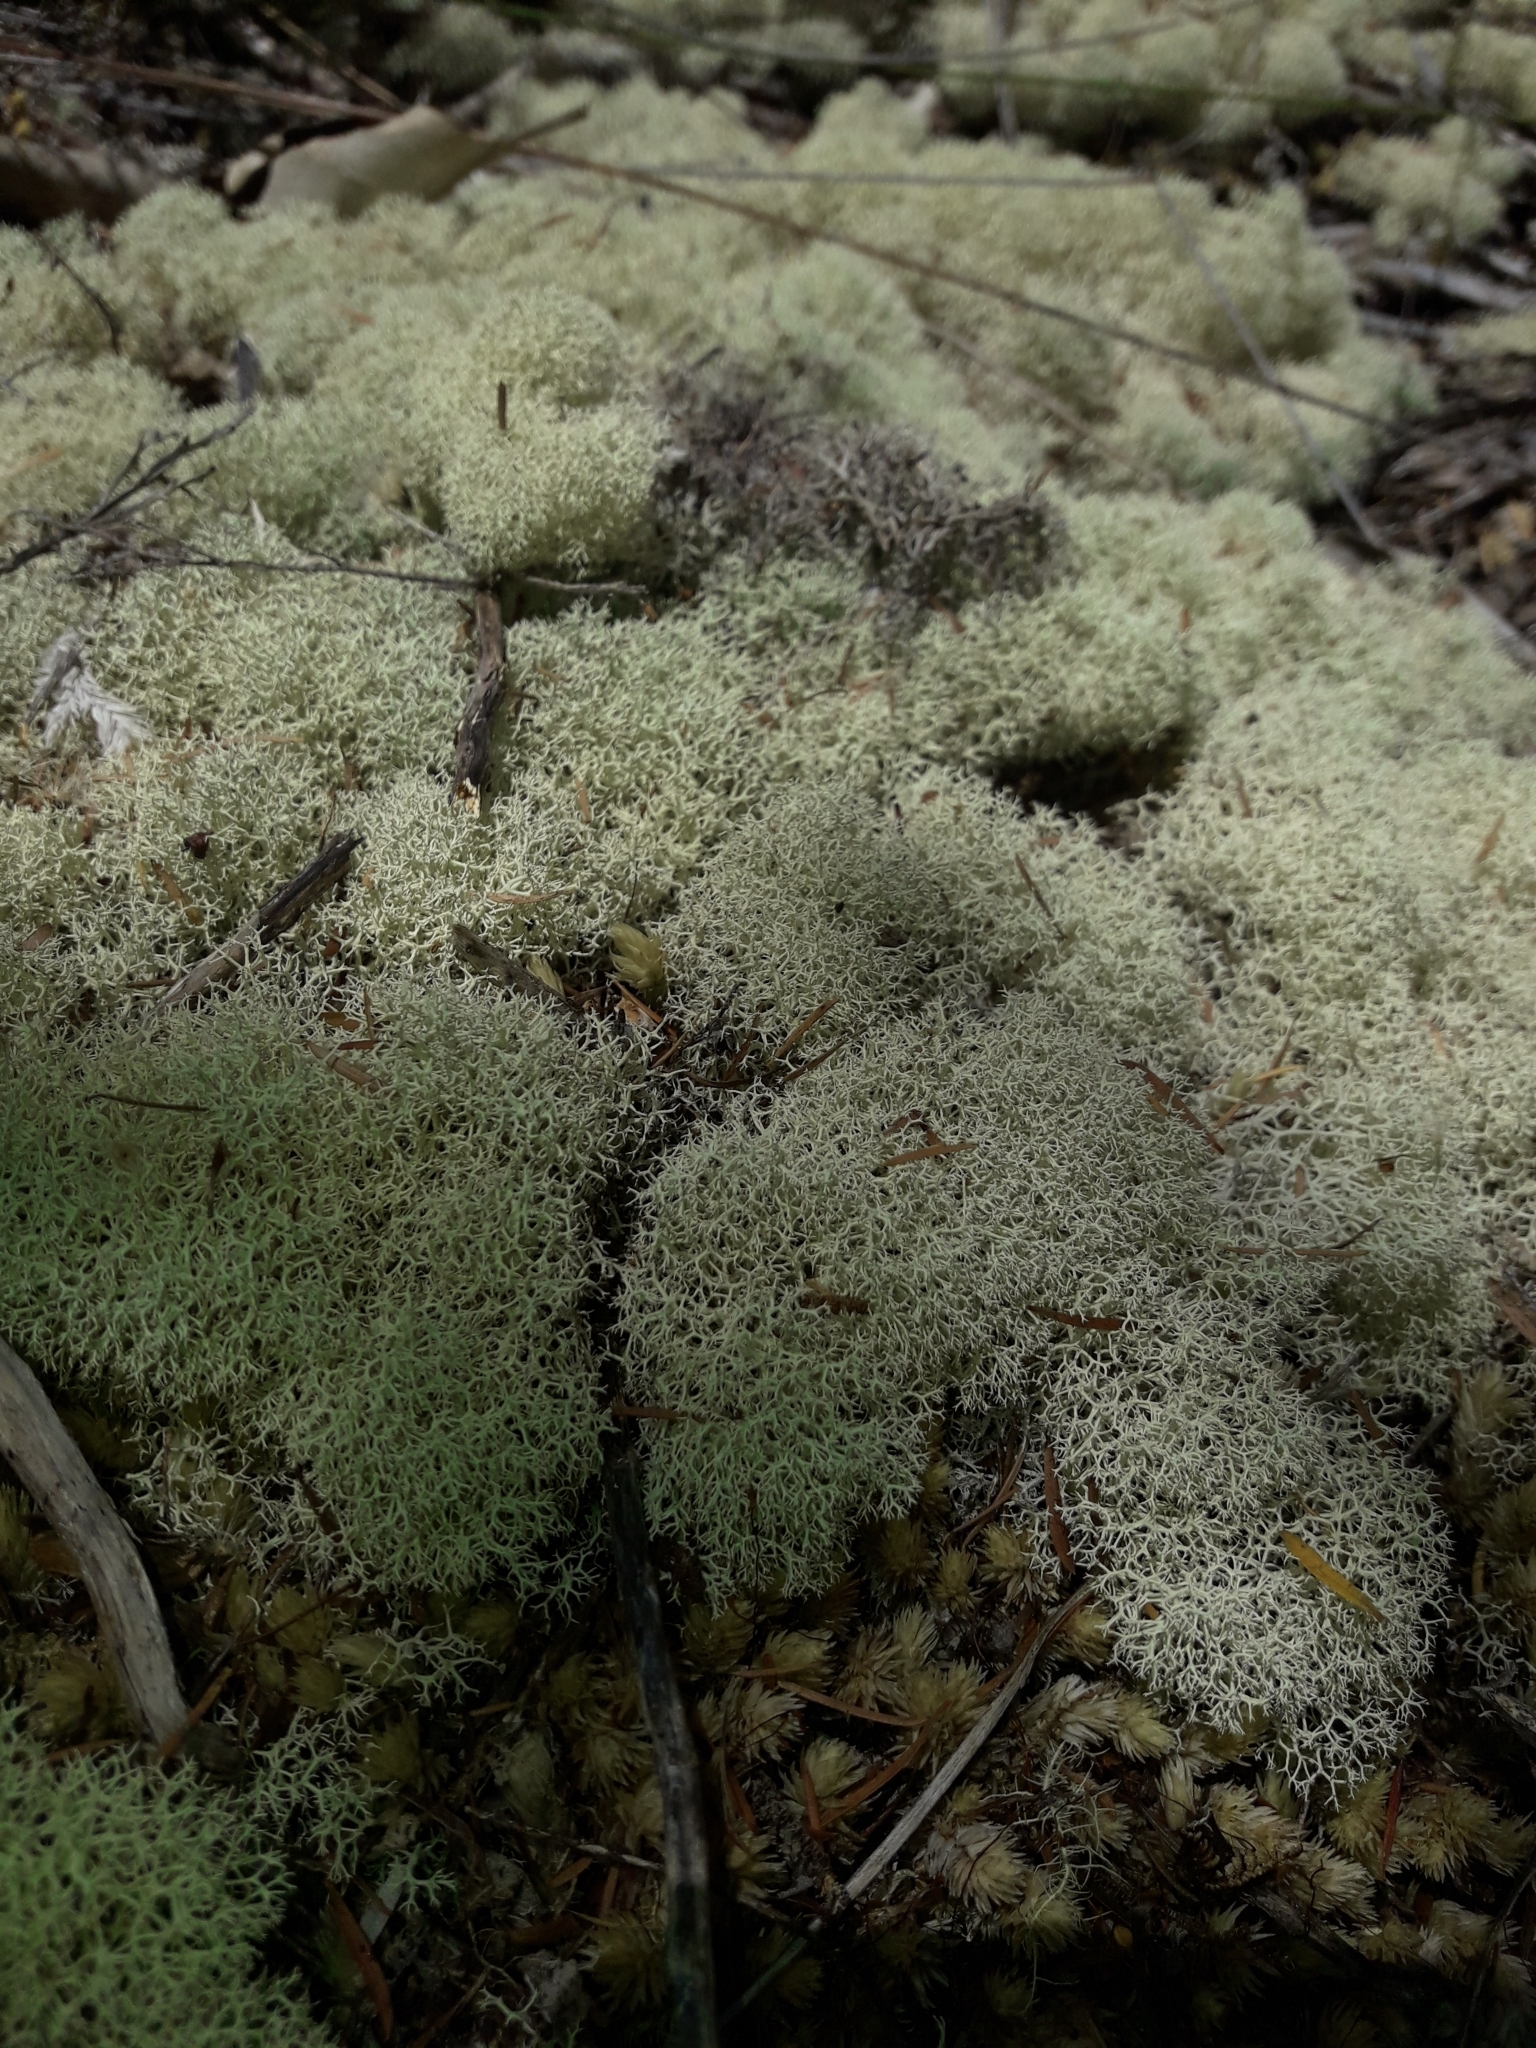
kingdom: Fungi
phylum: Ascomycota
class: Lecanoromycetes
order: Lecanorales
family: Cladoniaceae
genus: Cladonia
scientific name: Cladonia confusa
